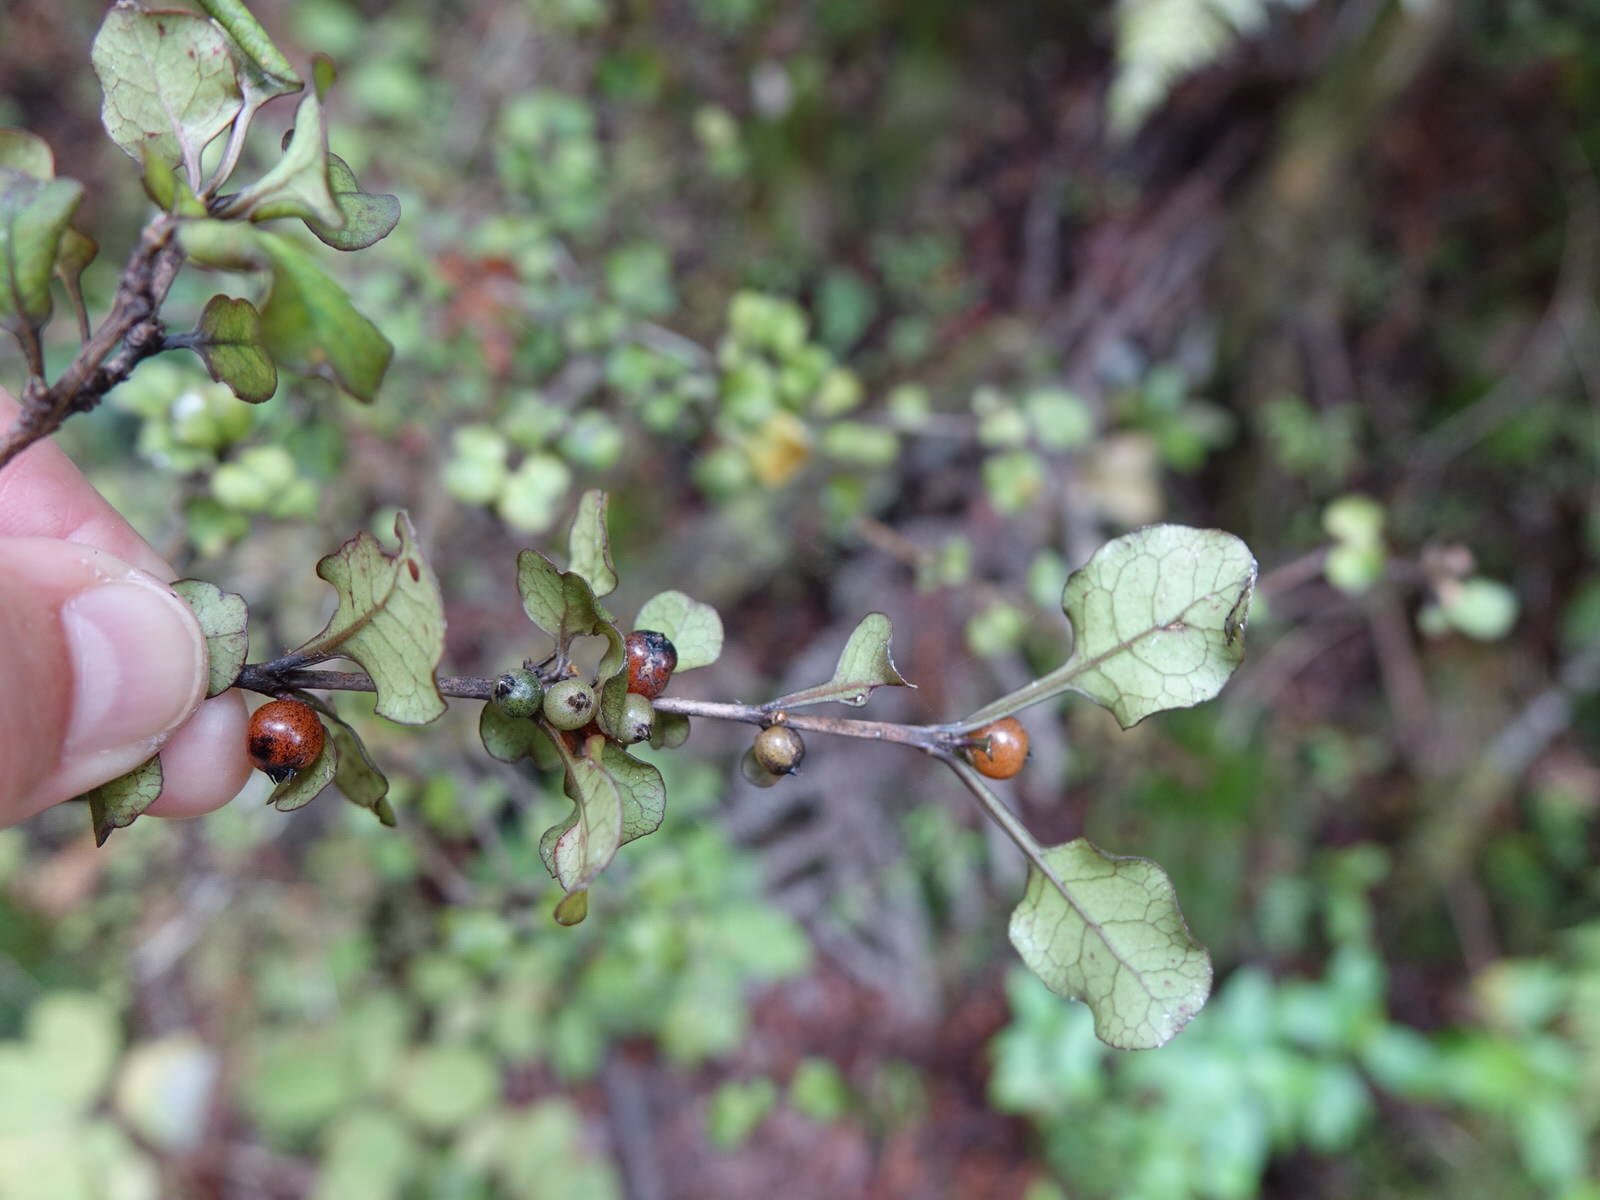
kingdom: Plantae
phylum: Tracheophyta
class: Magnoliopsida
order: Gentianales
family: Rubiaceae
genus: Coprosma
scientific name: Coprosma arborea
